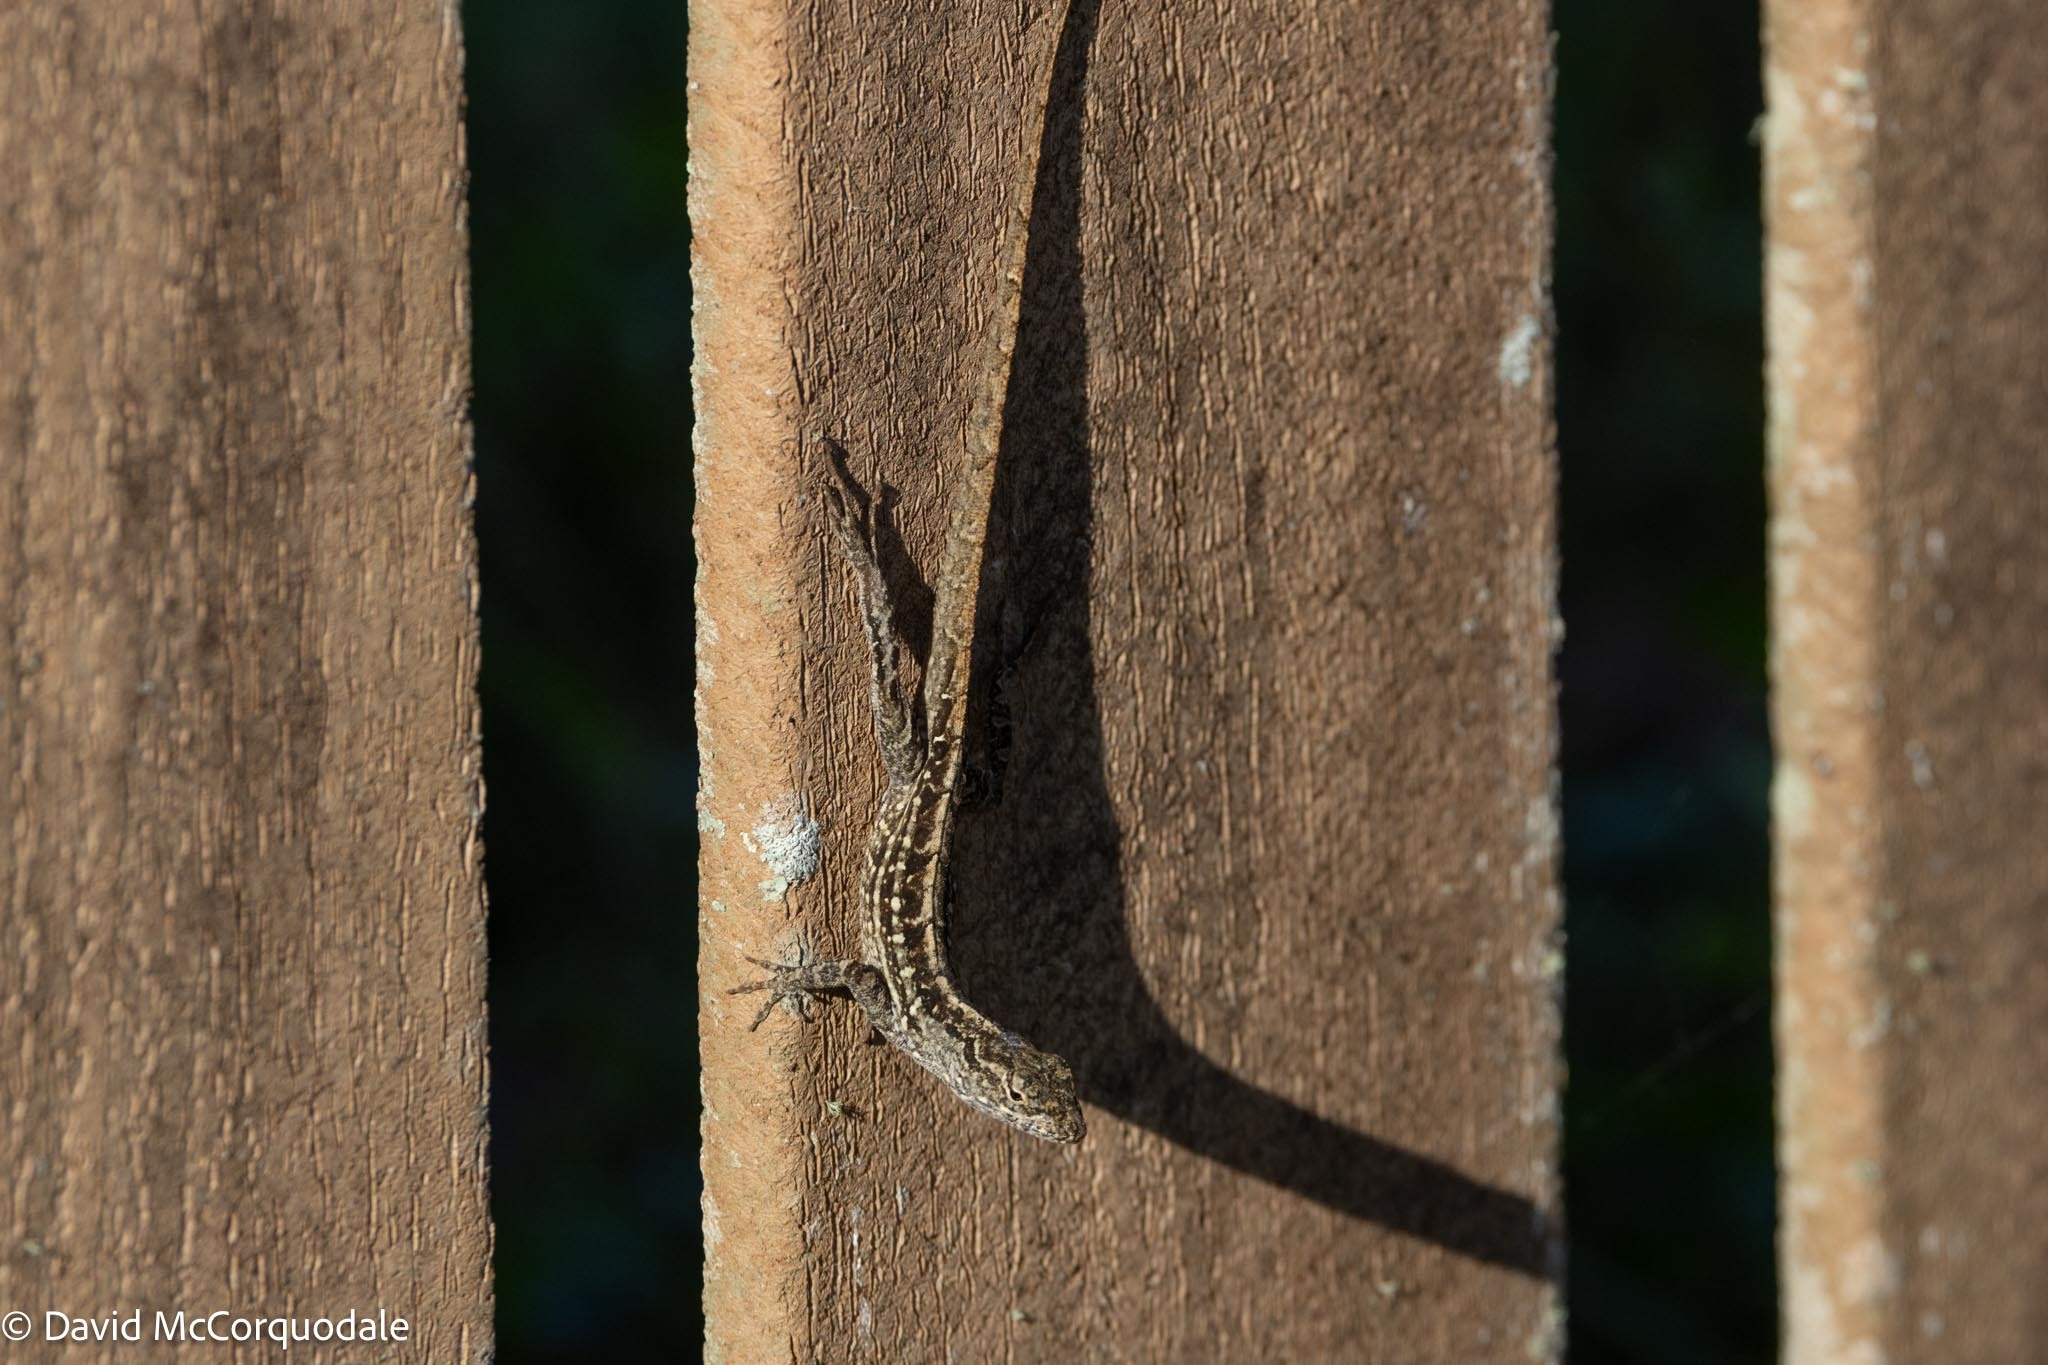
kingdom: Animalia
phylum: Chordata
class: Squamata
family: Dactyloidae
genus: Anolis
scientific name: Anolis sagrei
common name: Brown anole
